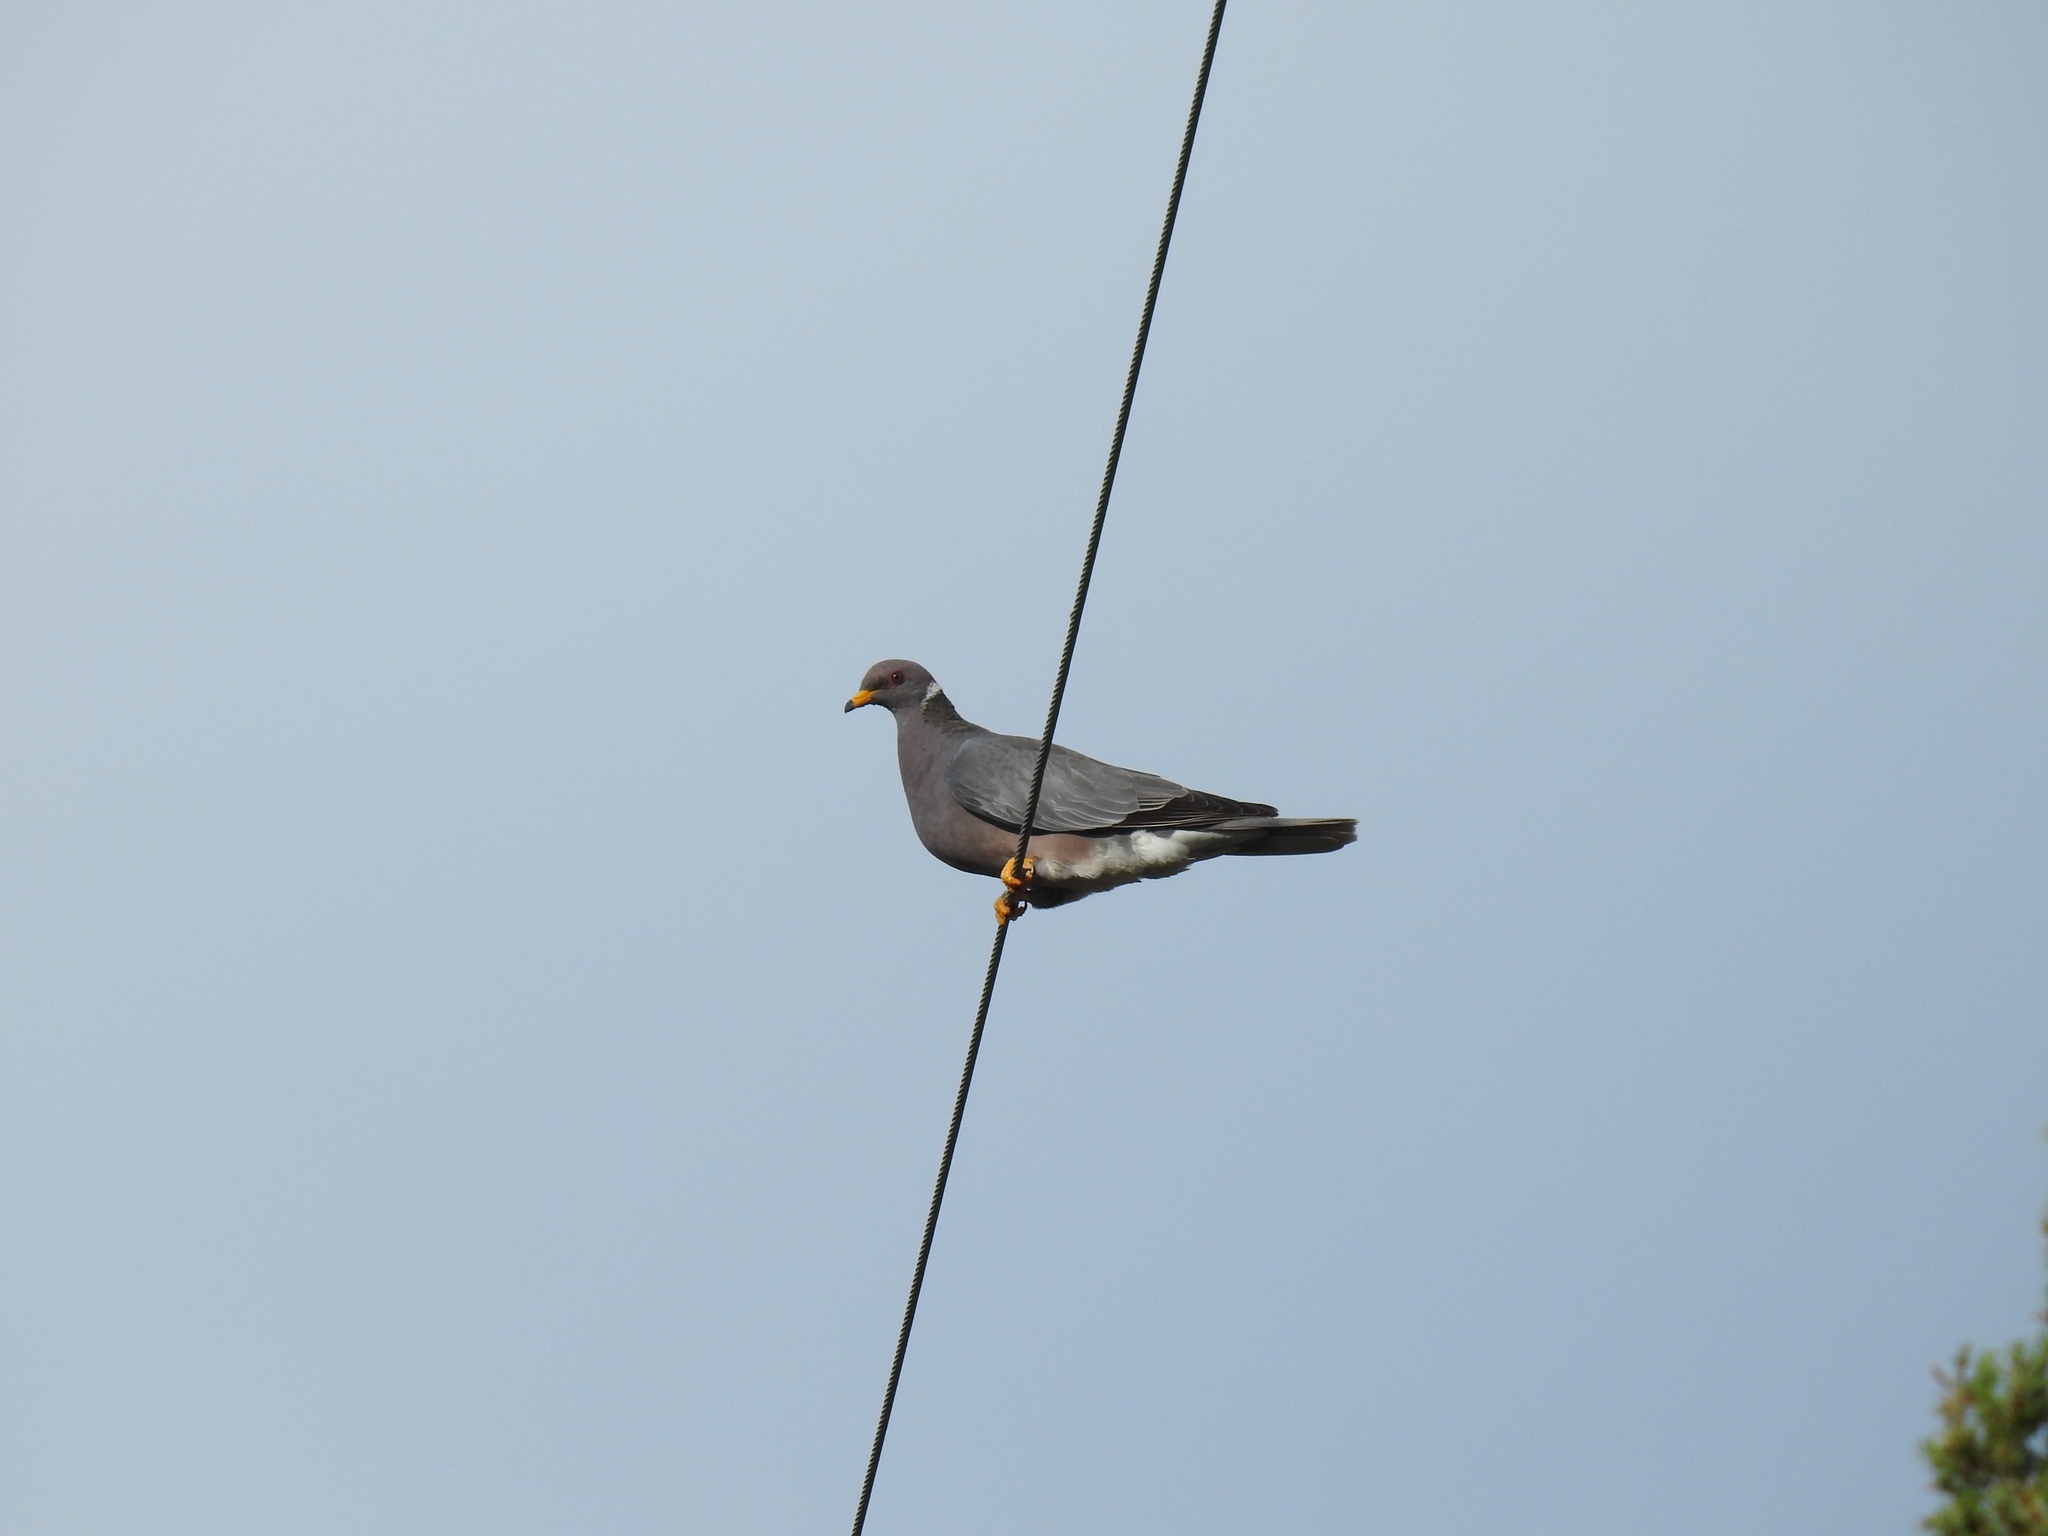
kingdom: Animalia
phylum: Chordata
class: Aves
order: Columbiformes
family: Columbidae
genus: Patagioenas
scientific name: Patagioenas fasciata
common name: Band-tailed pigeon
